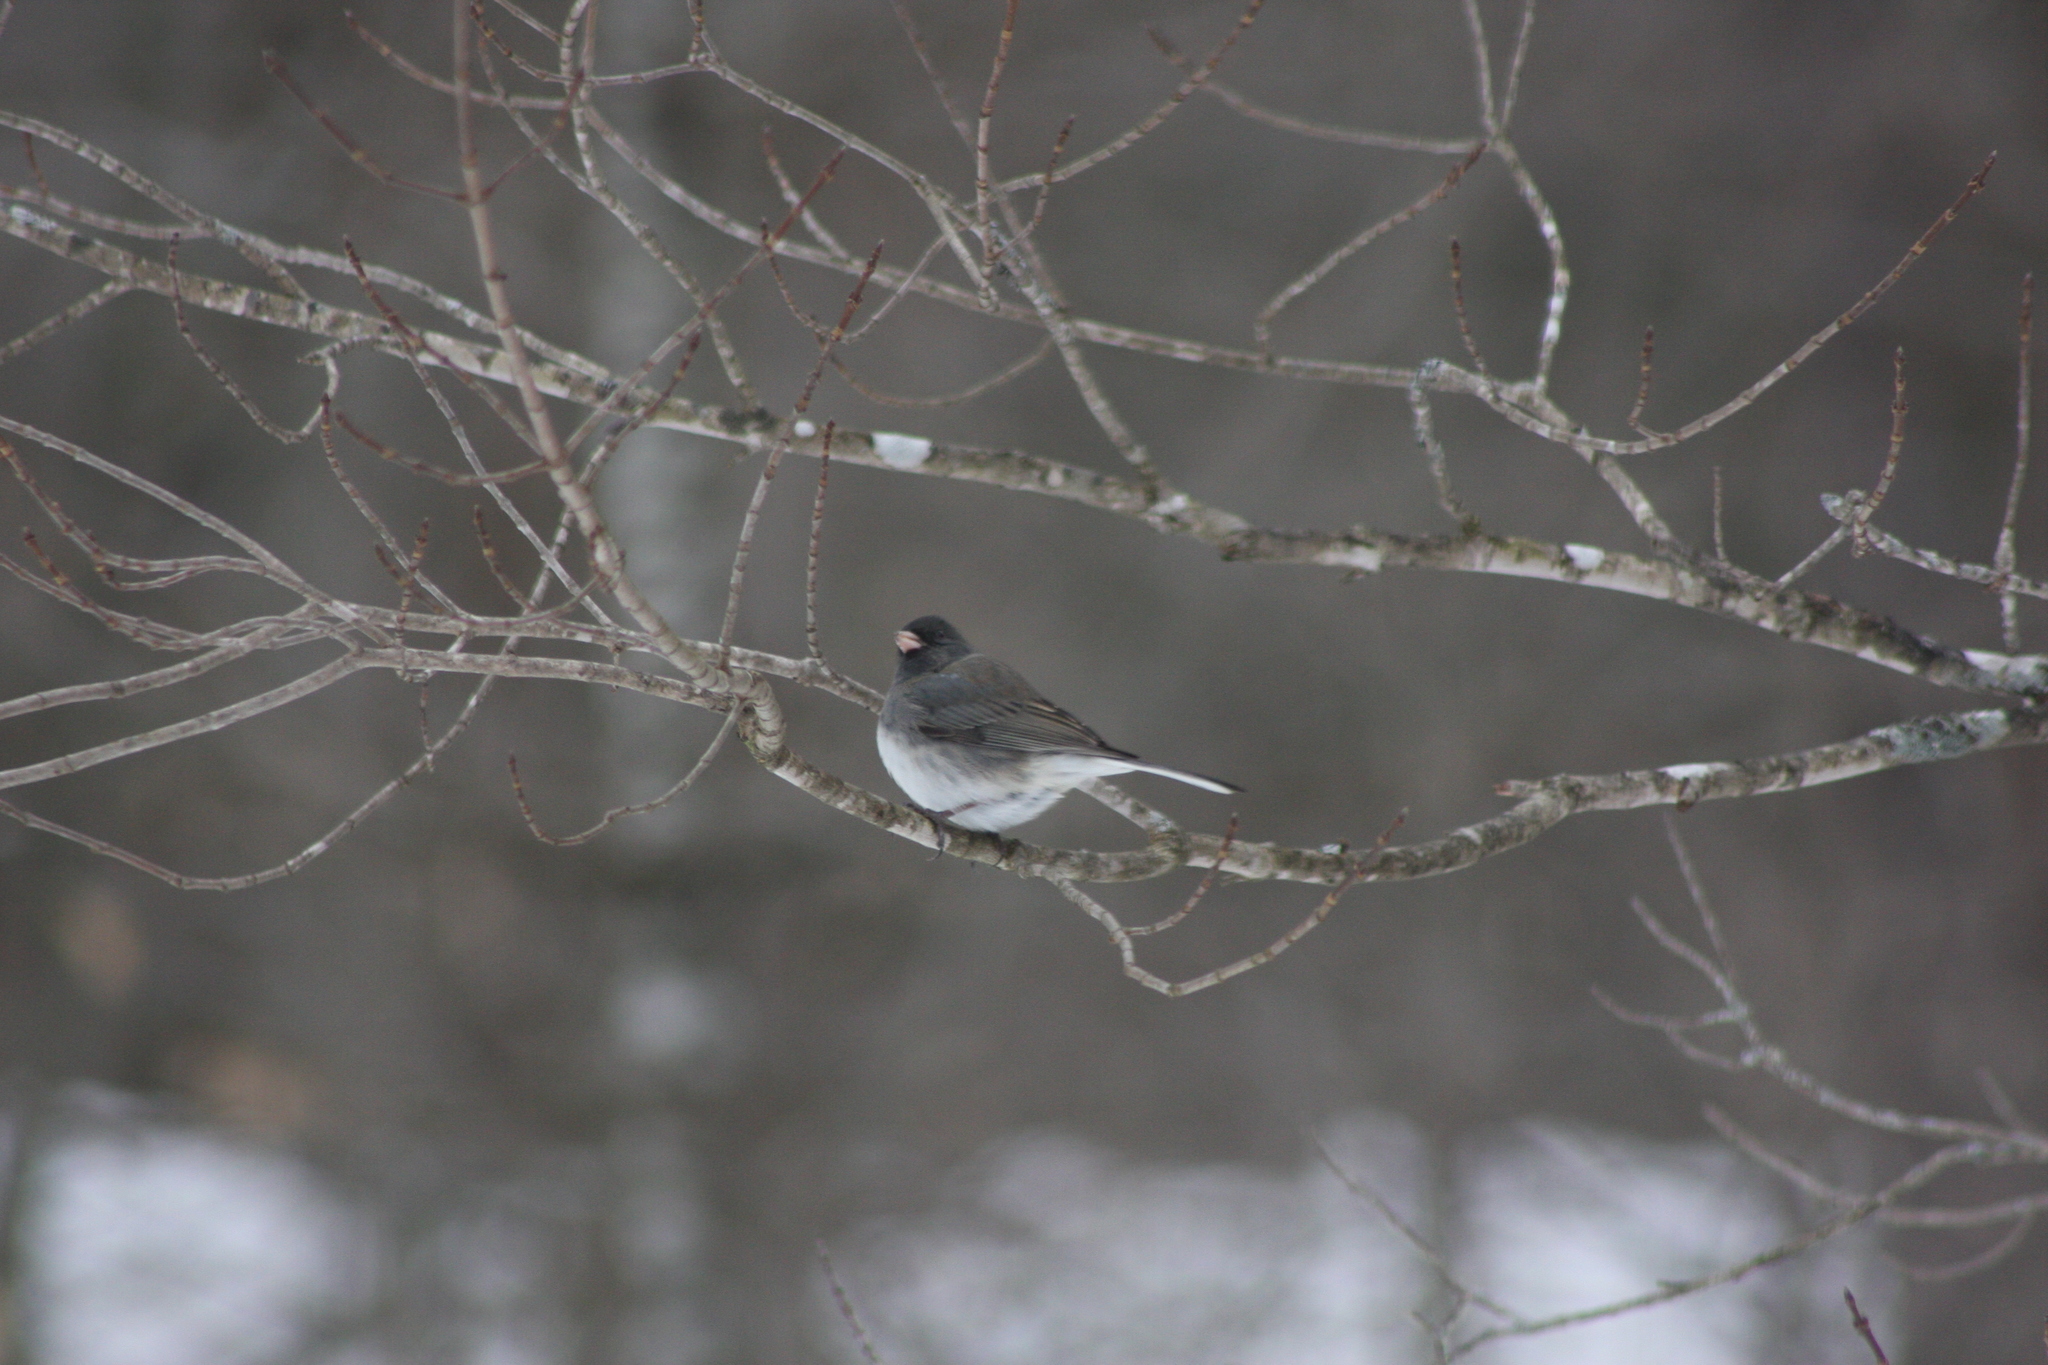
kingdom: Animalia
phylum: Chordata
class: Aves
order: Passeriformes
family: Passerellidae
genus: Junco
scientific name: Junco hyemalis
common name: Dark-eyed junco
